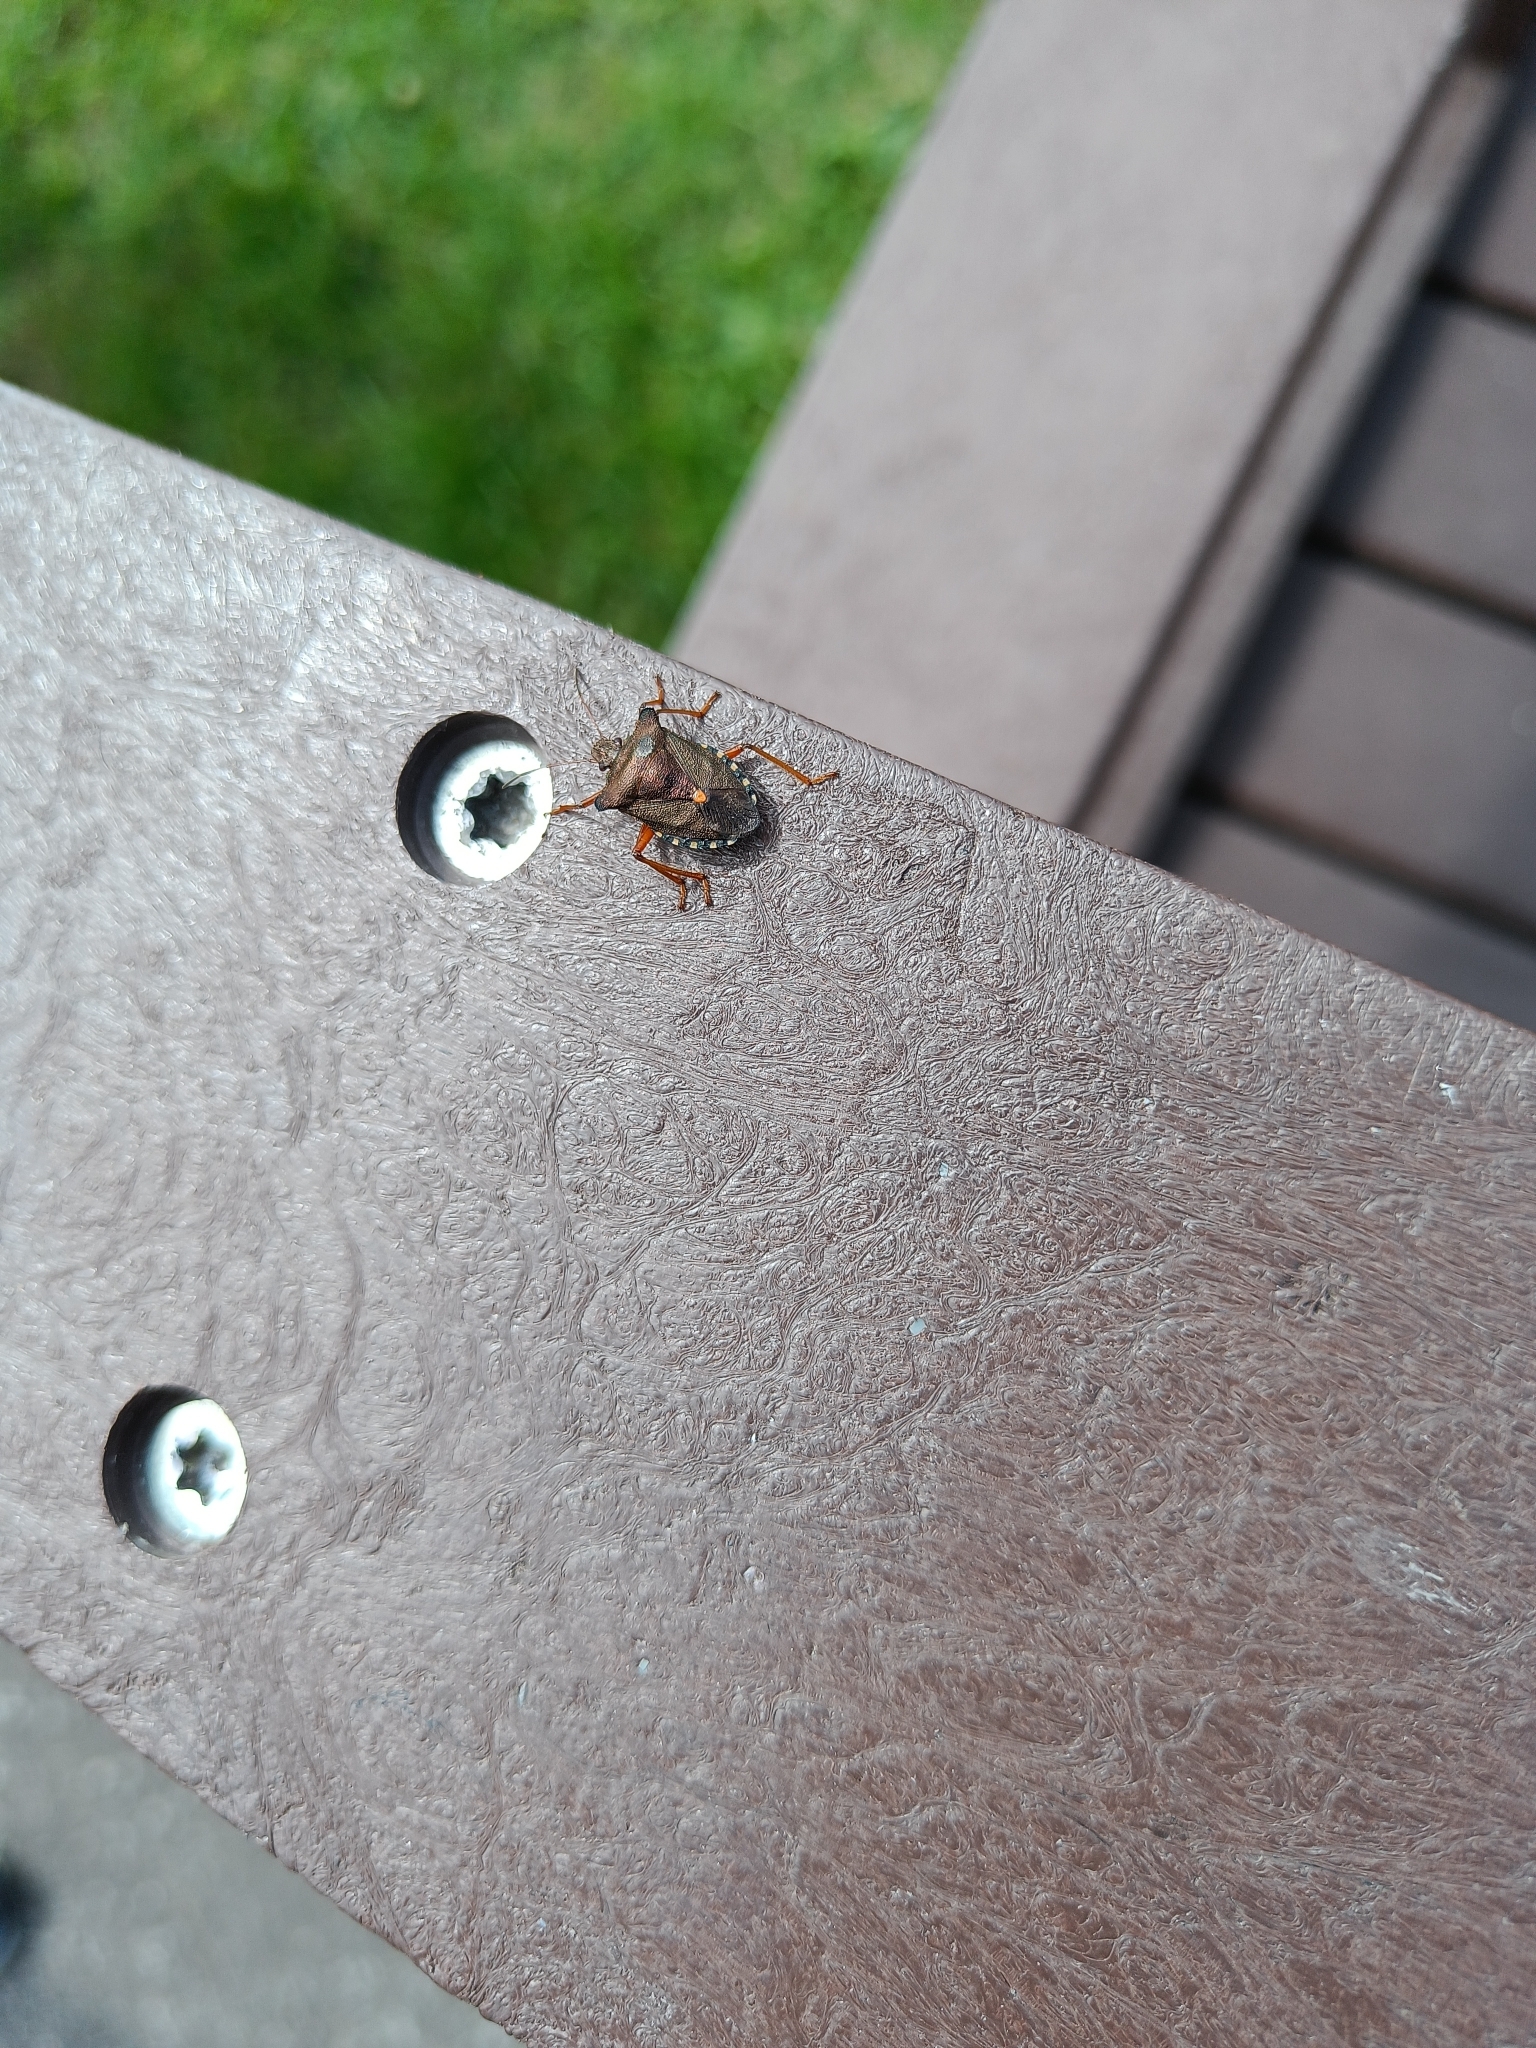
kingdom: Animalia
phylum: Arthropoda
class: Insecta
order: Hemiptera
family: Pentatomidae
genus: Pentatoma
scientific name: Pentatoma rufipes
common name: Forest bug
